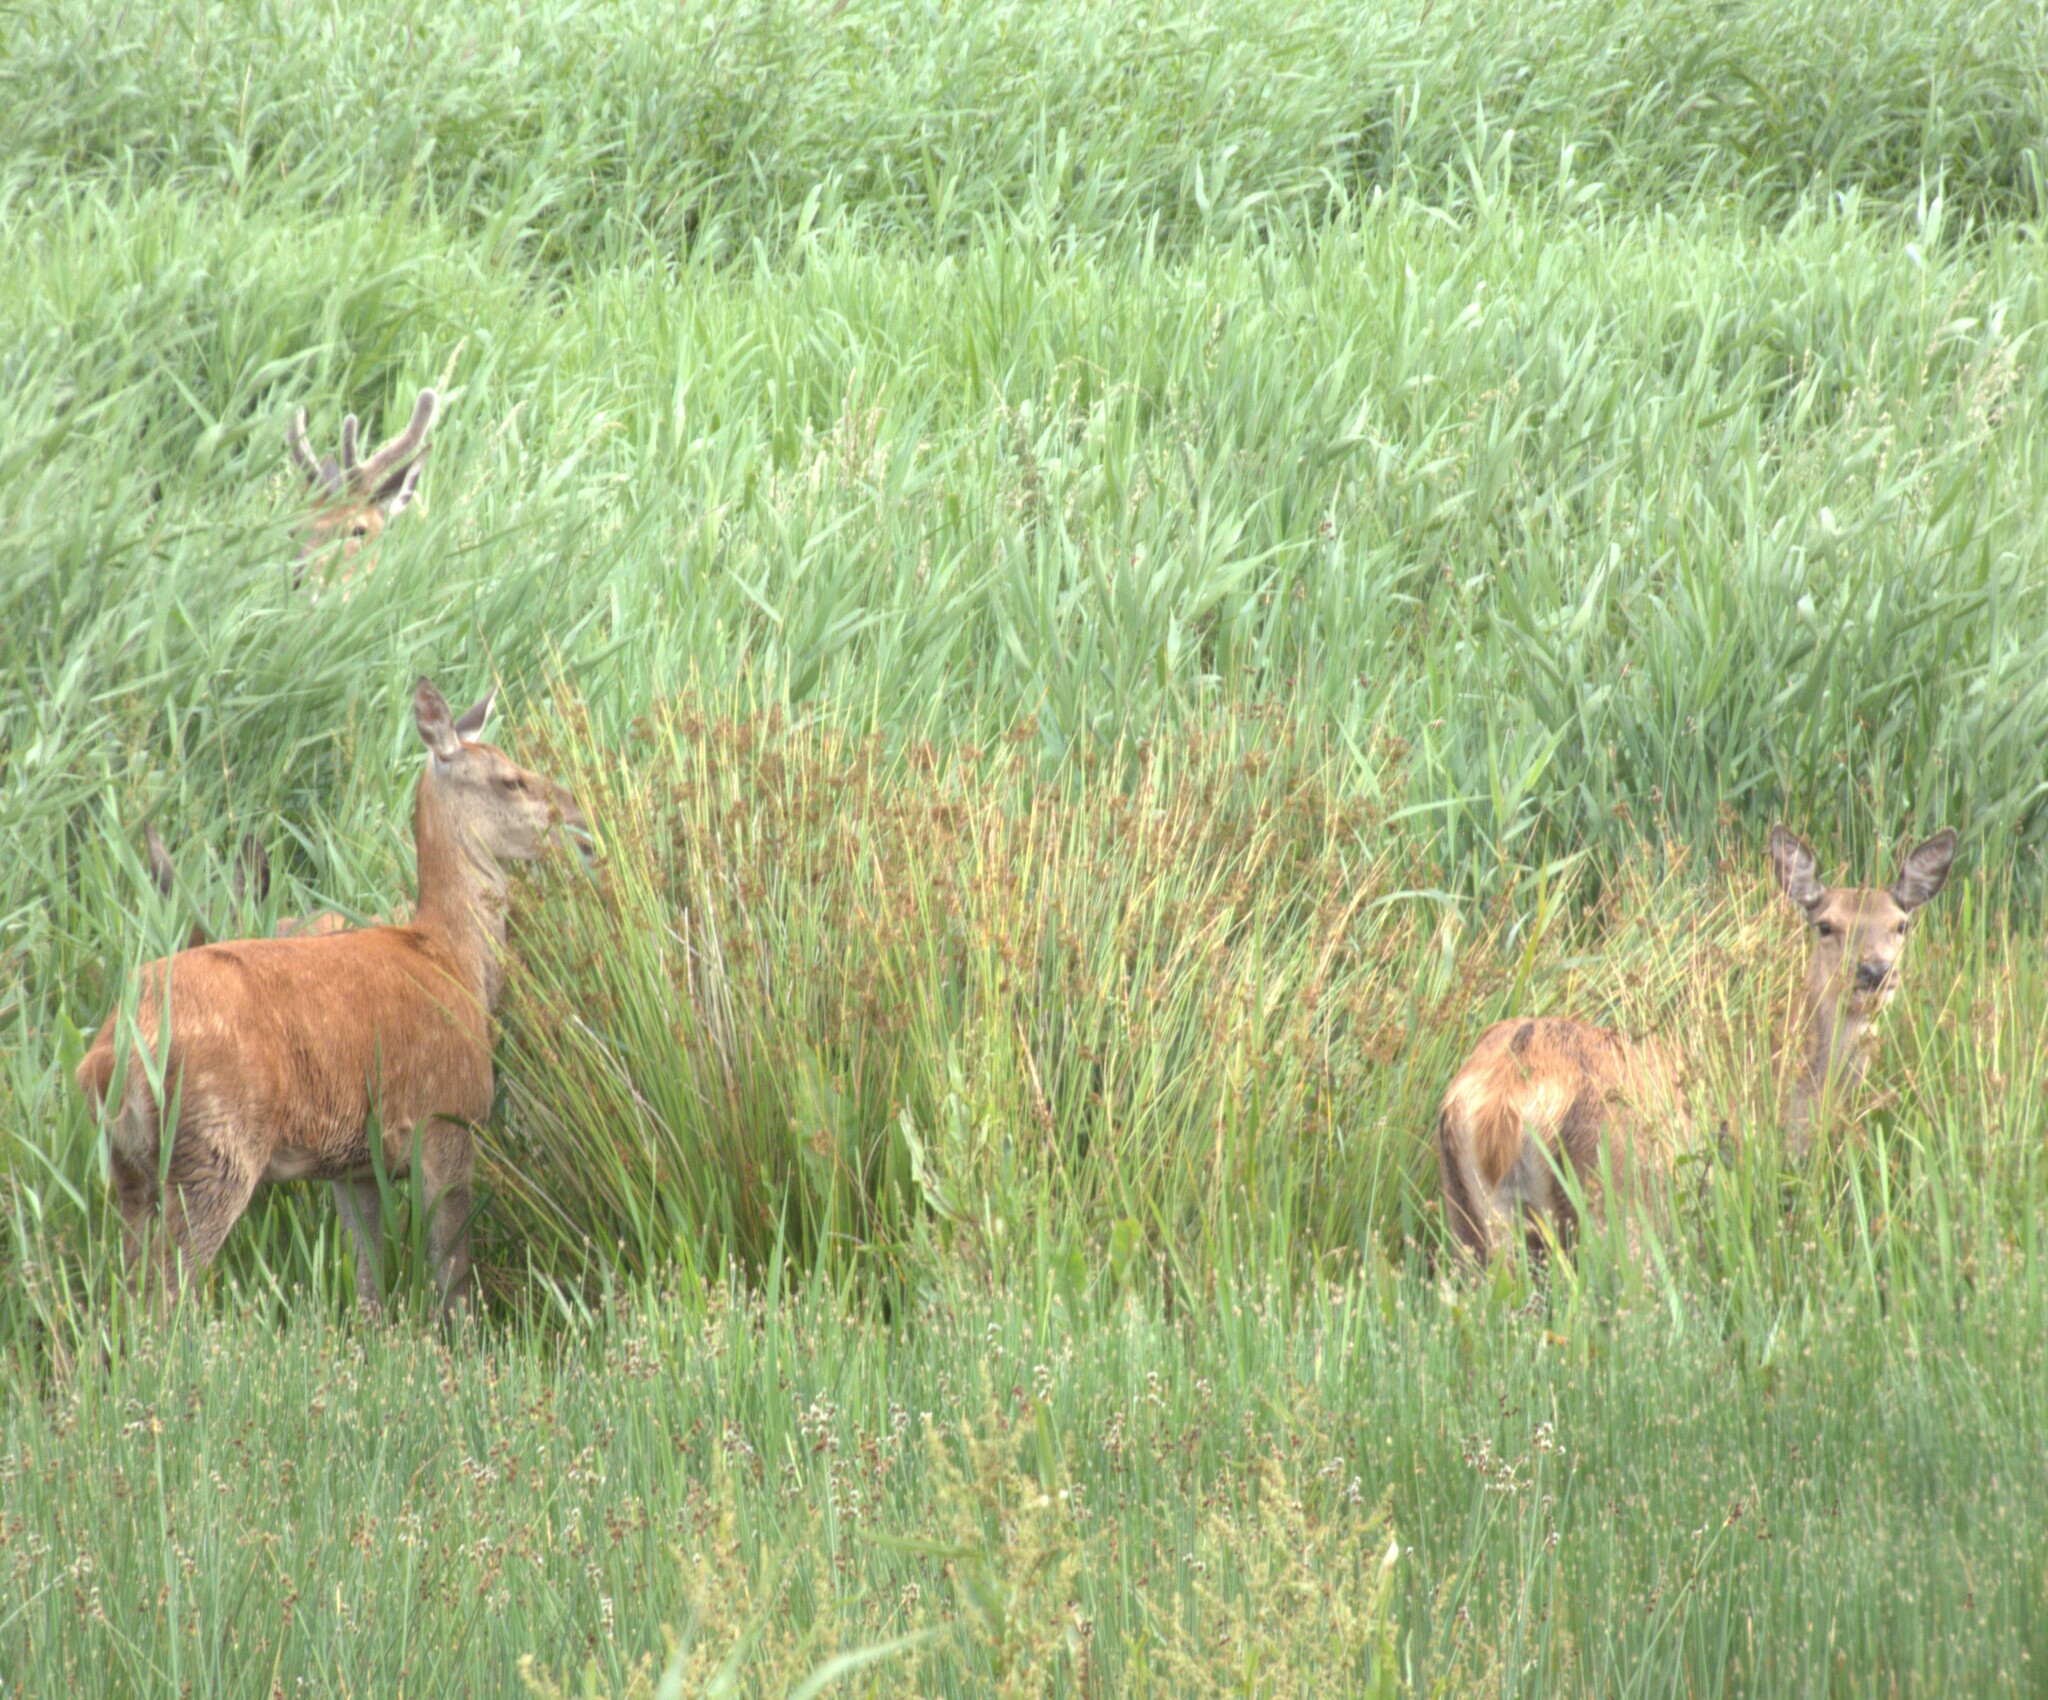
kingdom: Animalia
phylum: Chordata
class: Mammalia
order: Artiodactyla
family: Cervidae
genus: Cervus
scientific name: Cervus elaphus
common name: Red deer
